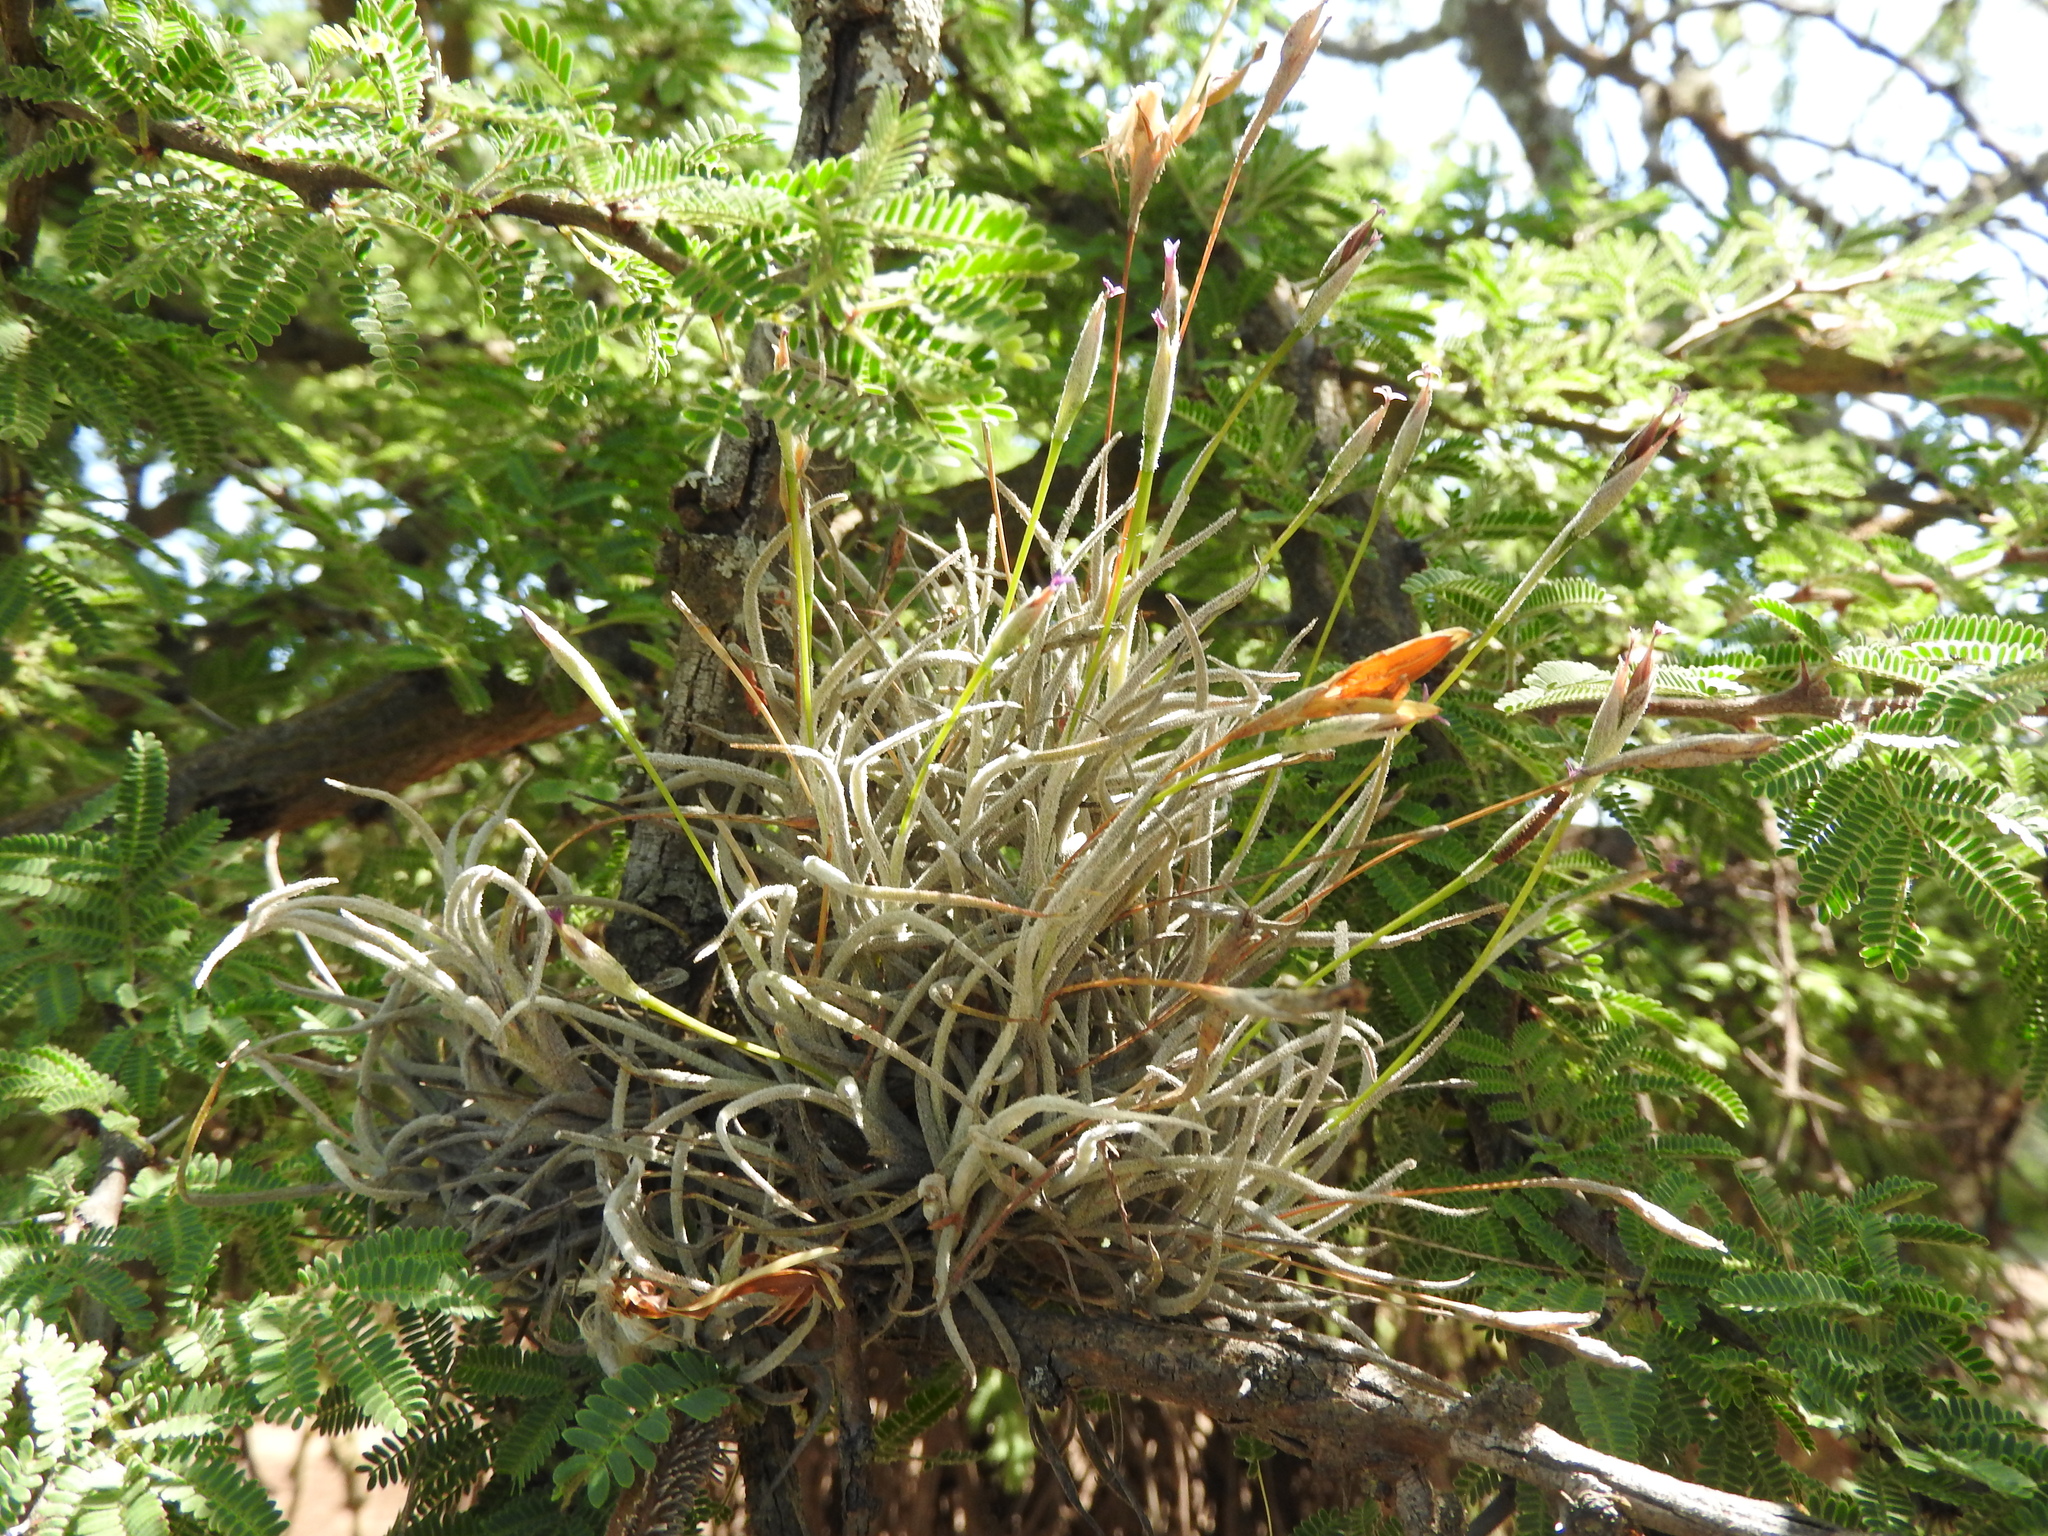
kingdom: Plantae
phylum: Tracheophyta
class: Liliopsida
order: Poales
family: Bromeliaceae
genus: Tillandsia
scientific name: Tillandsia recurvata
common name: Small ballmoss
